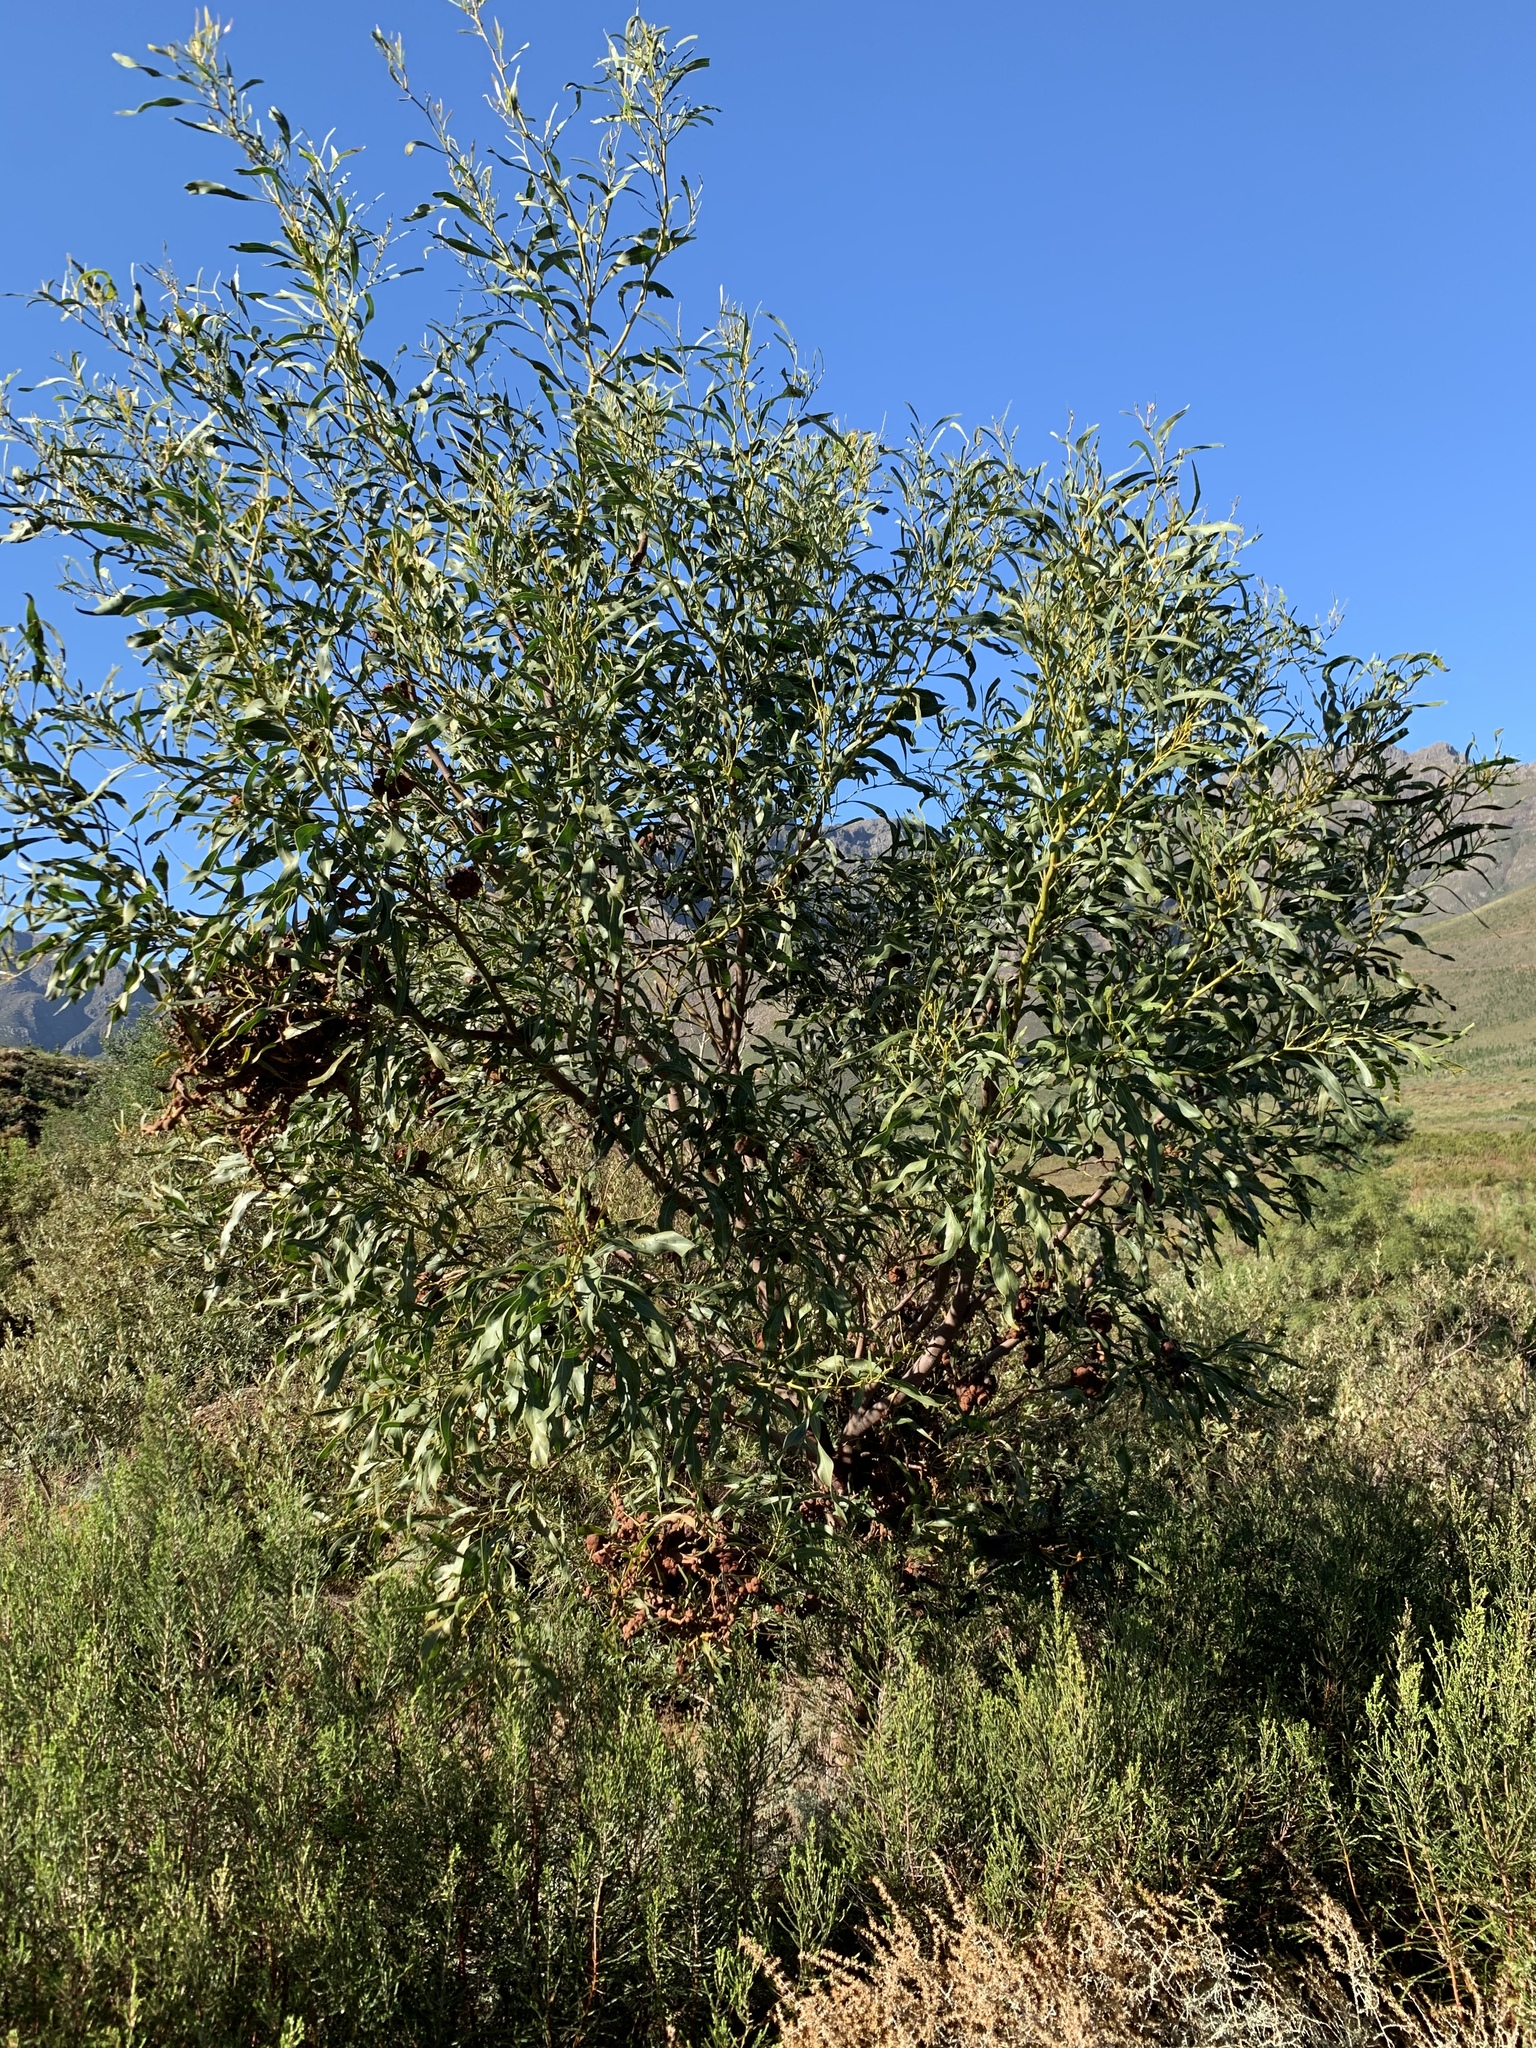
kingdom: Plantae
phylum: Tracheophyta
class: Magnoliopsida
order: Fabales
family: Fabaceae
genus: Acacia
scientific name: Acacia saligna
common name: Orange wattle
